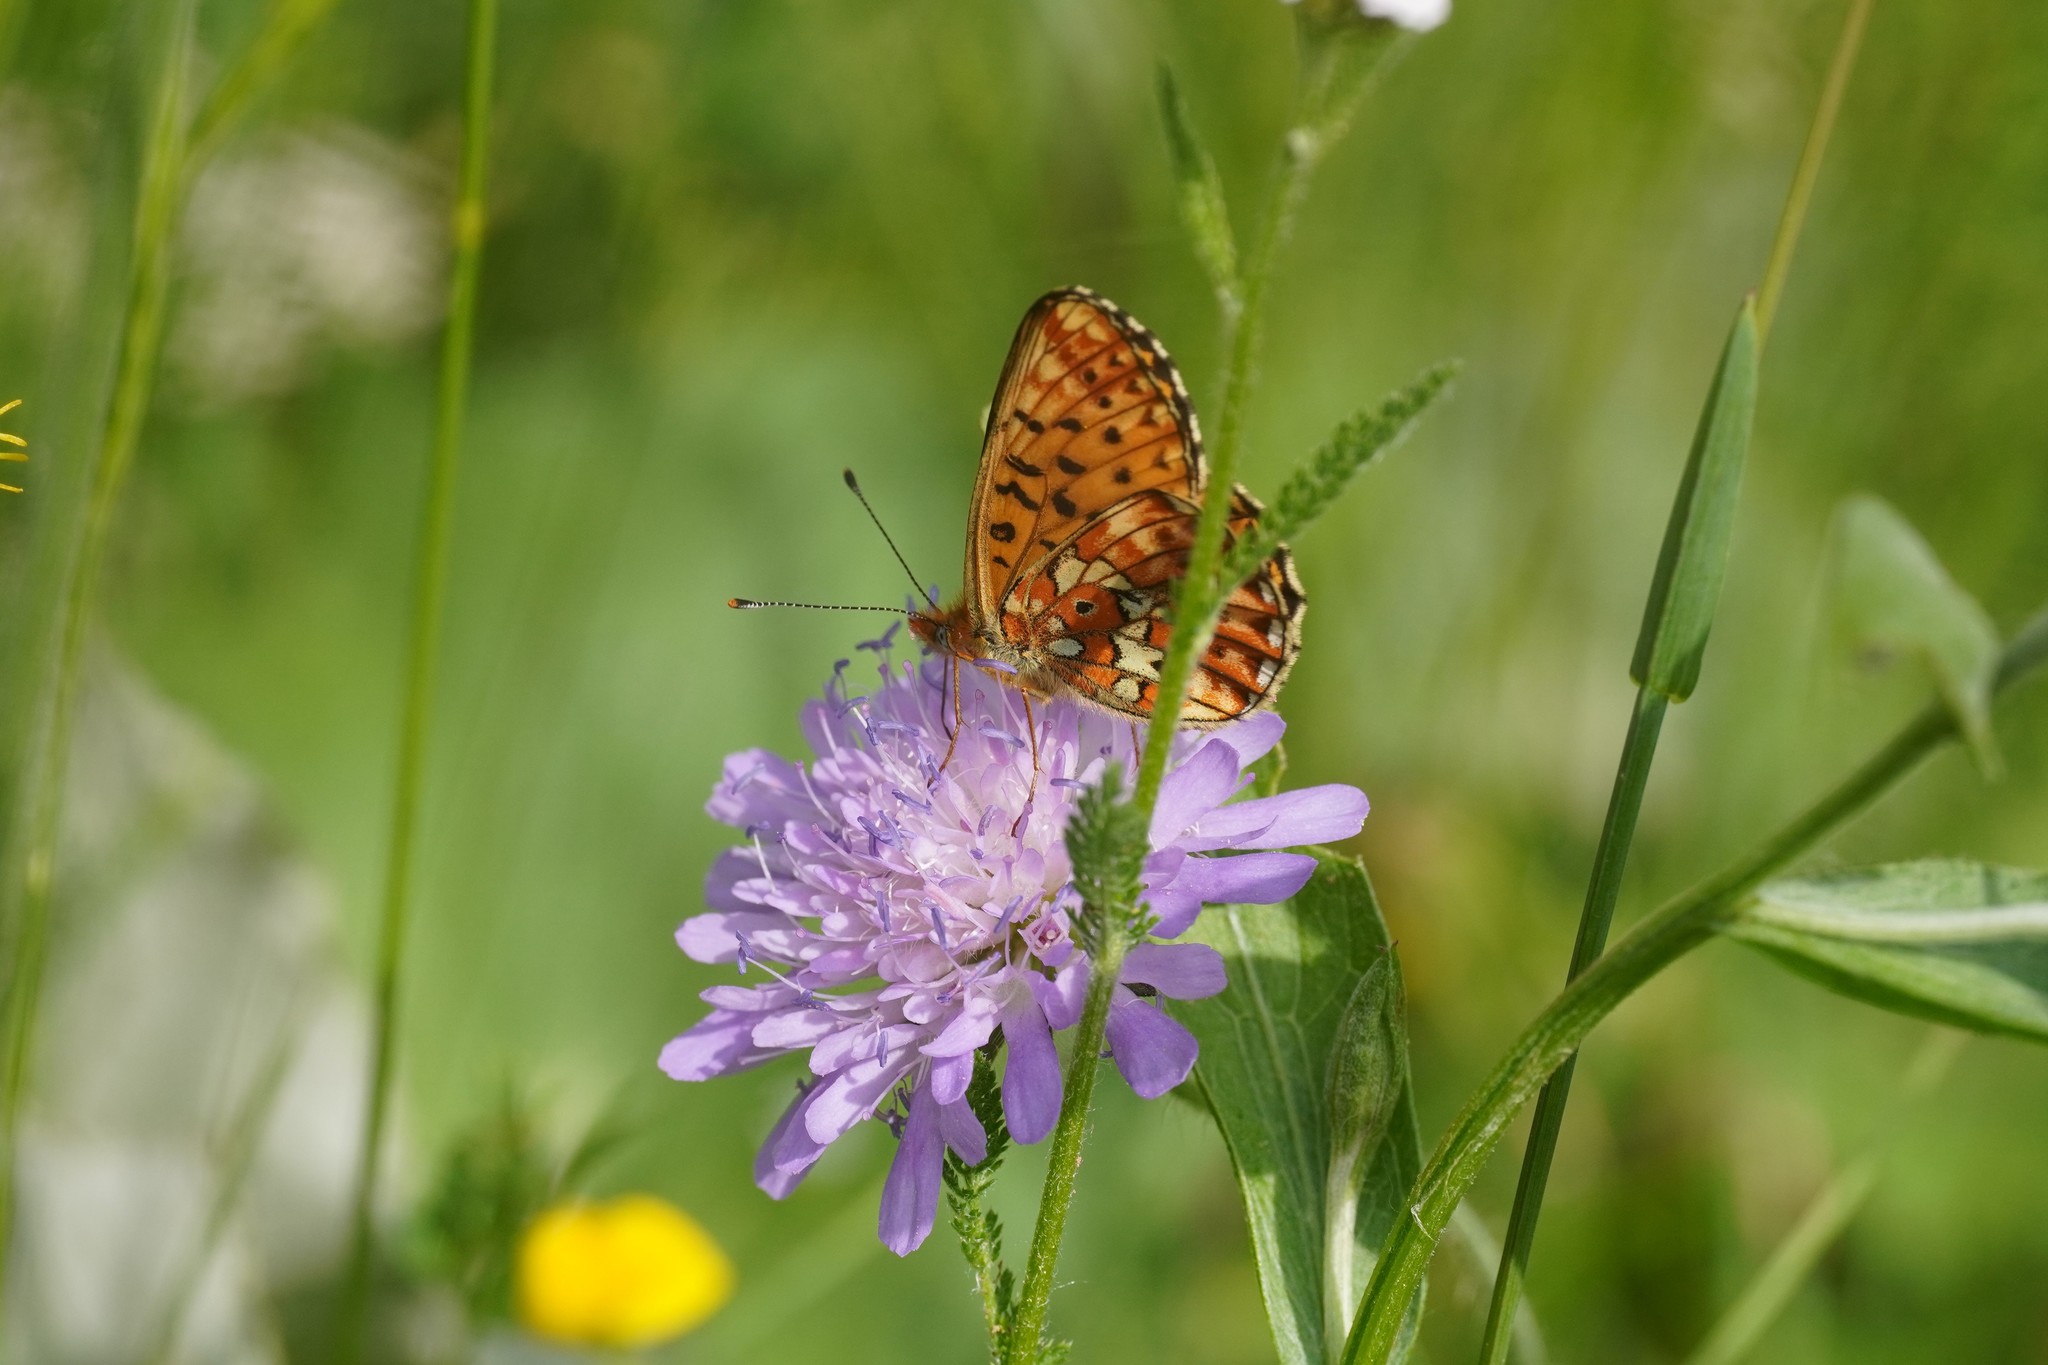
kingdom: Animalia
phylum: Arthropoda
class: Insecta
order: Lepidoptera
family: Nymphalidae
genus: Clossiana
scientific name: Clossiana euphrosyne
